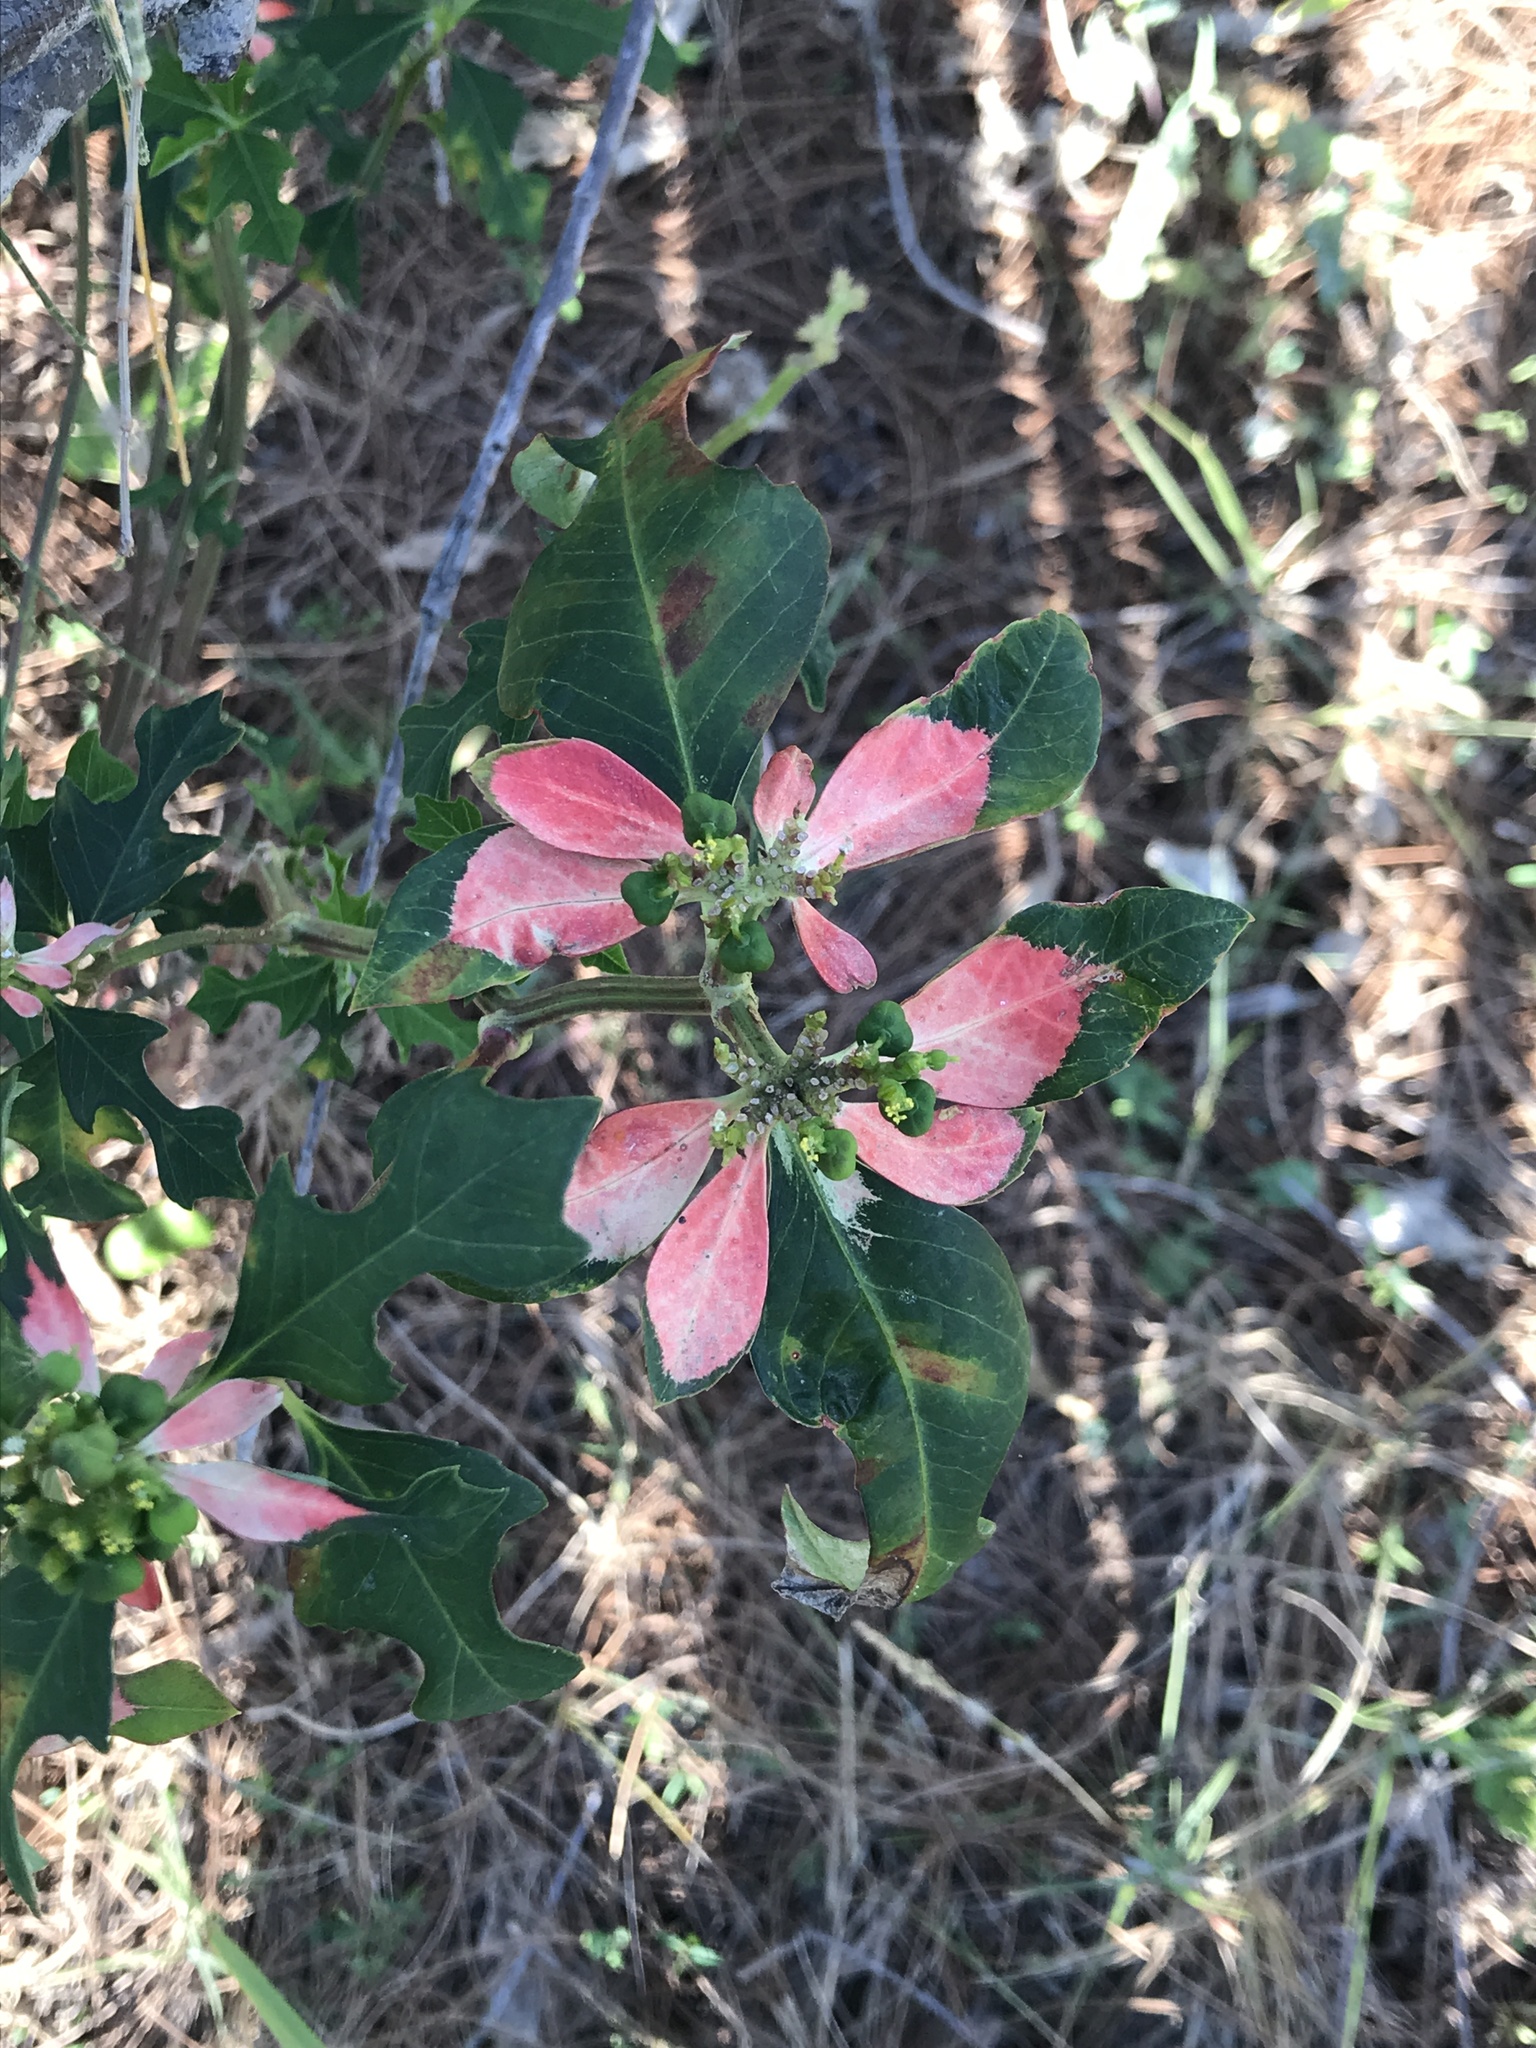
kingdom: Plantae
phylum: Tracheophyta
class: Magnoliopsida
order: Malpighiales
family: Euphorbiaceae
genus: Euphorbia
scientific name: Euphorbia heterophylla
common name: Mexican fireplant
